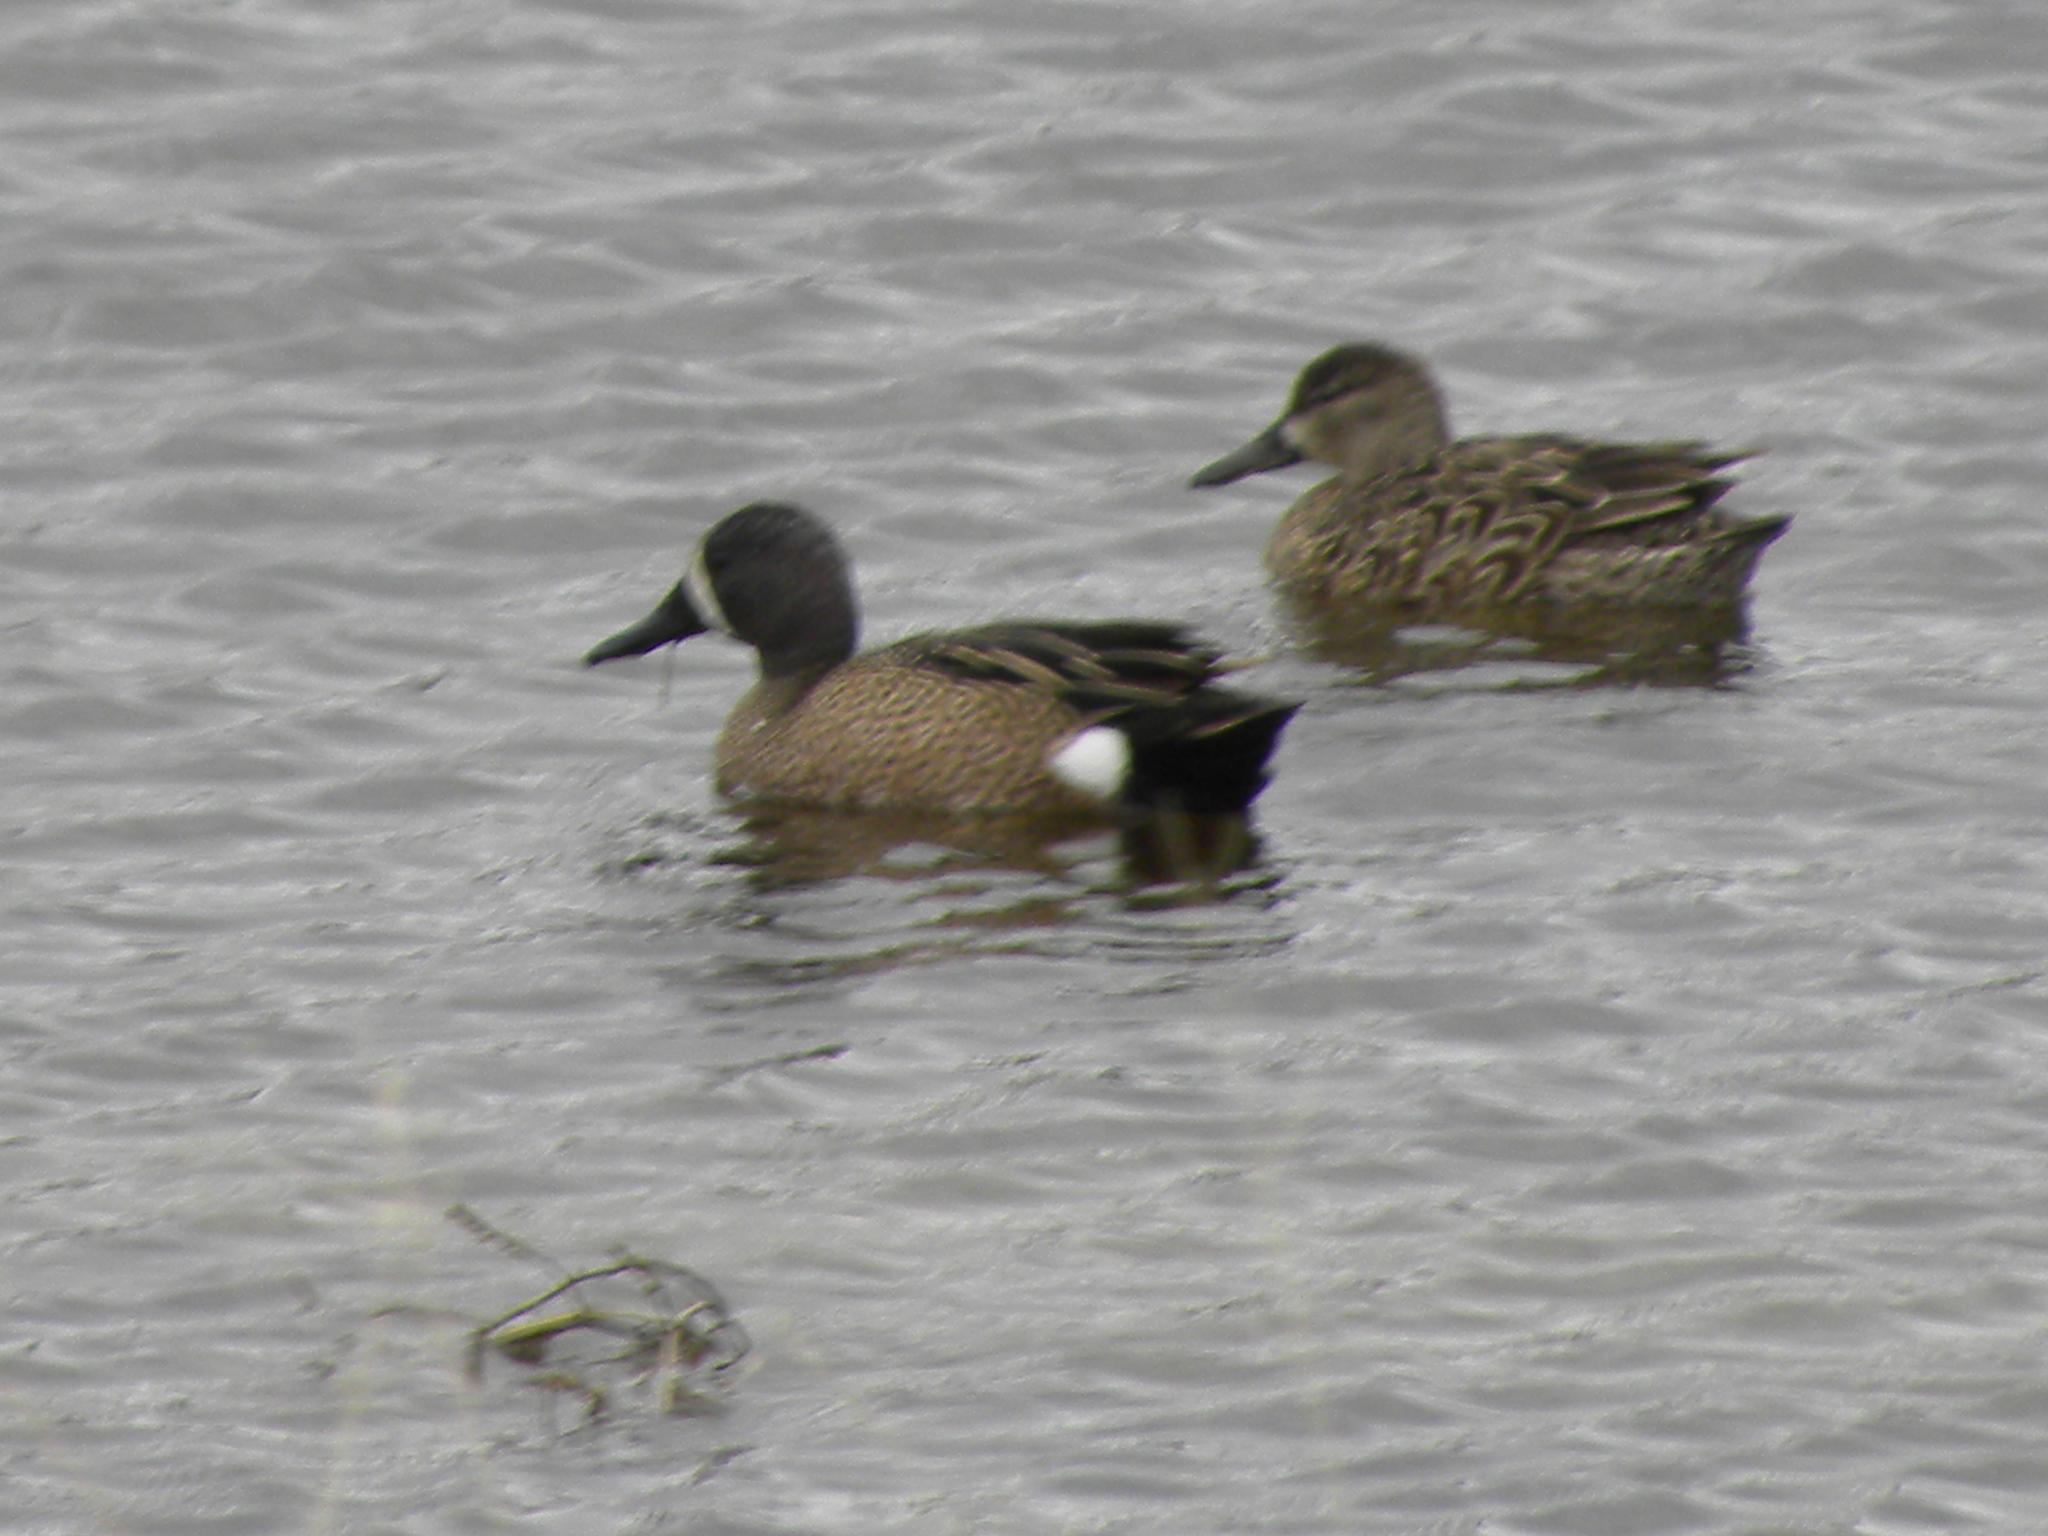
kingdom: Animalia
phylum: Chordata
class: Aves
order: Anseriformes
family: Anatidae
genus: Spatula
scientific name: Spatula discors
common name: Blue-winged teal
